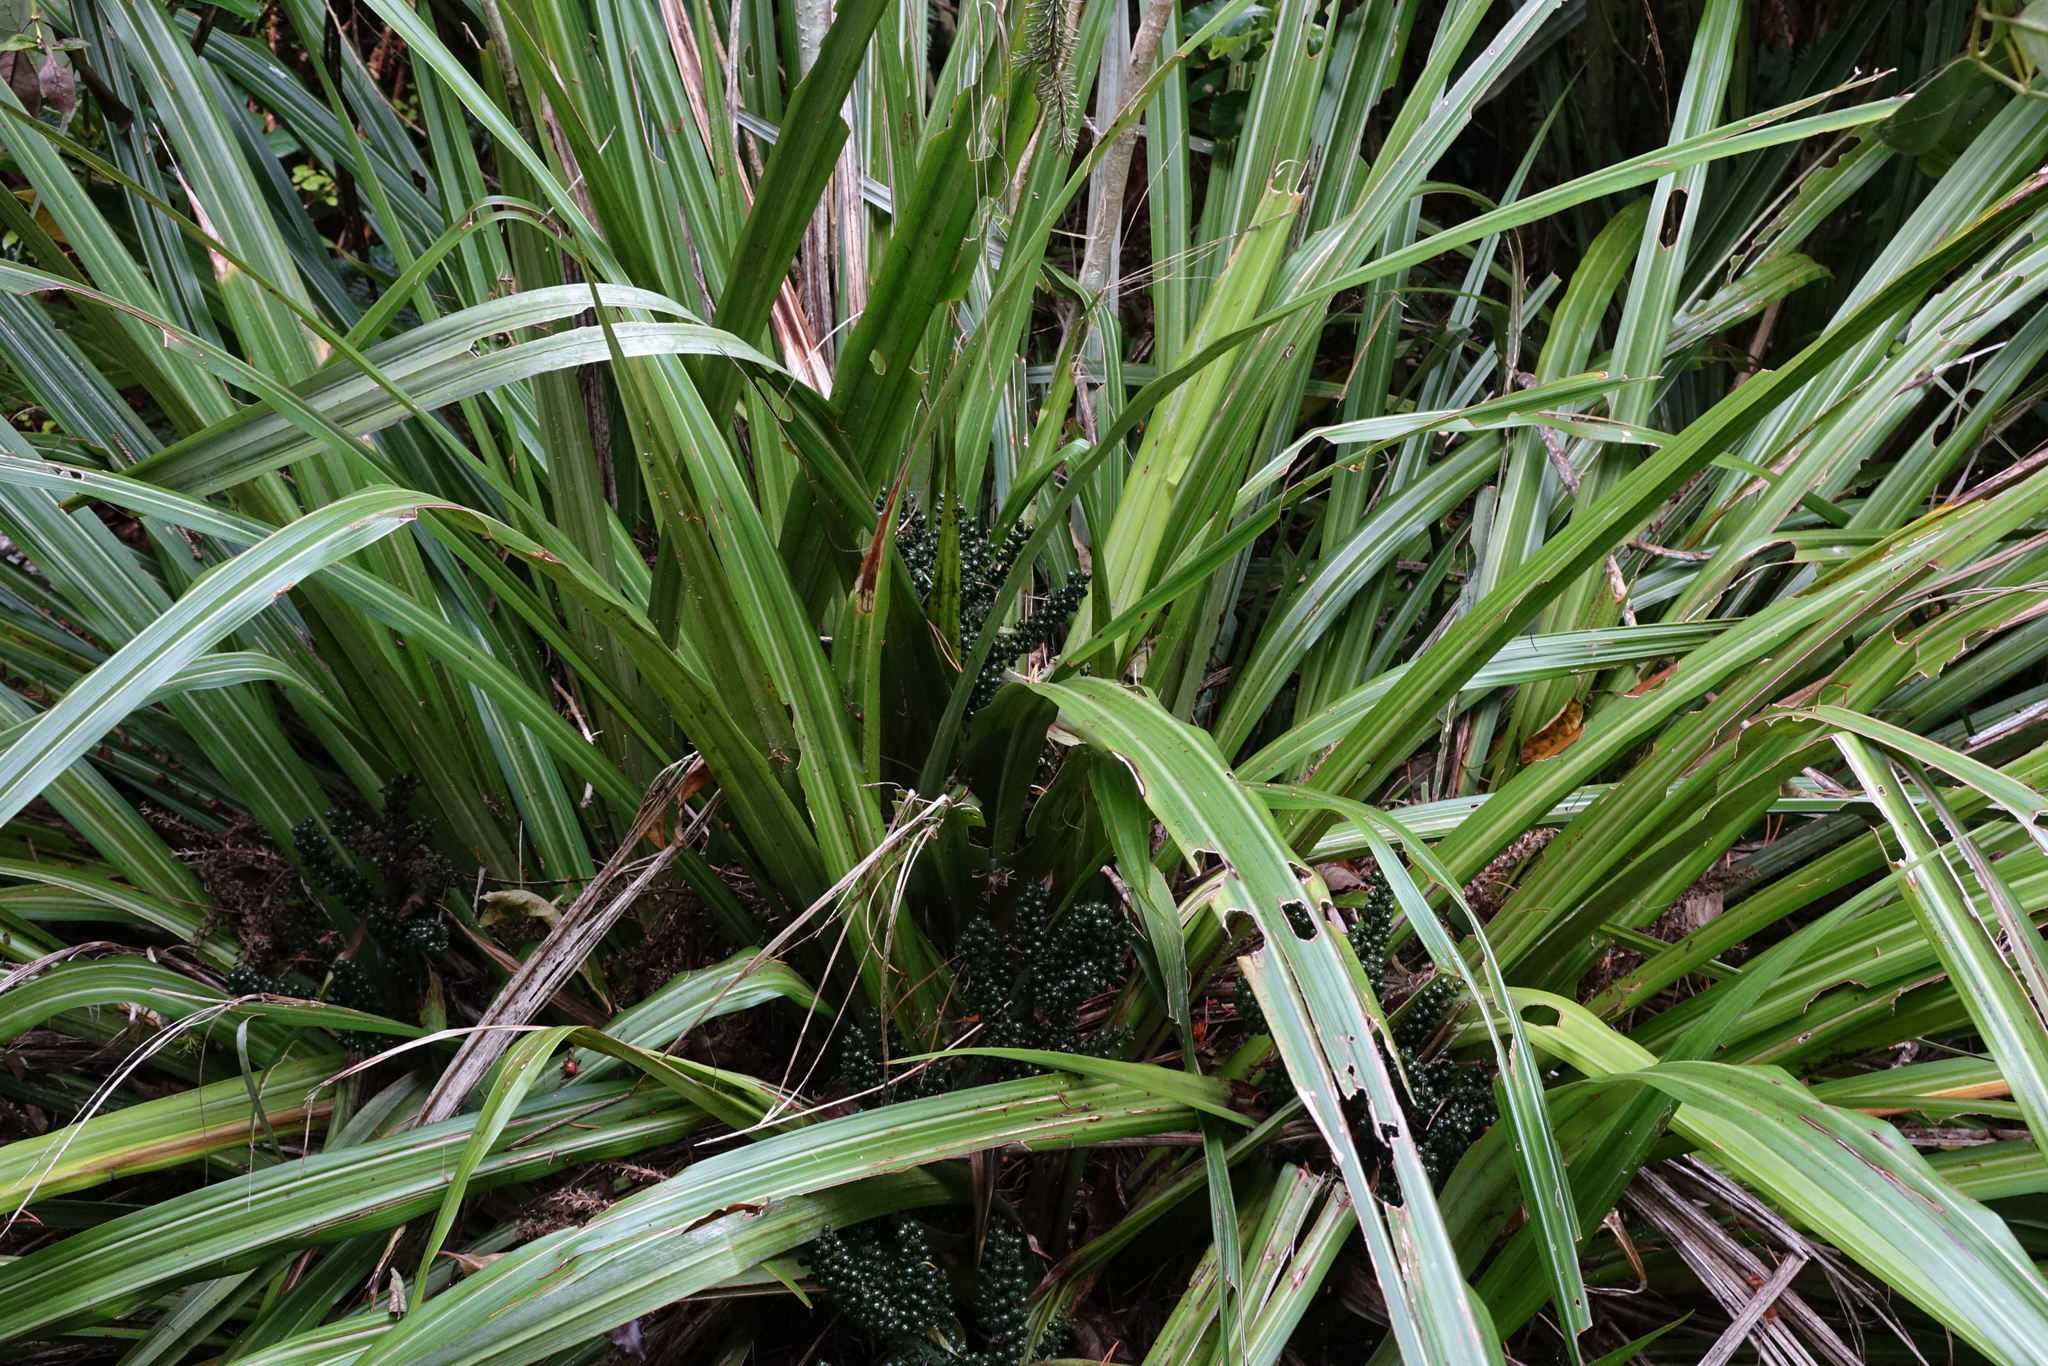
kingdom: Plantae
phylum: Tracheophyta
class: Liliopsida
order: Asparagales
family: Asteliaceae
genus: Astelia
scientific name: Astelia fragrans
